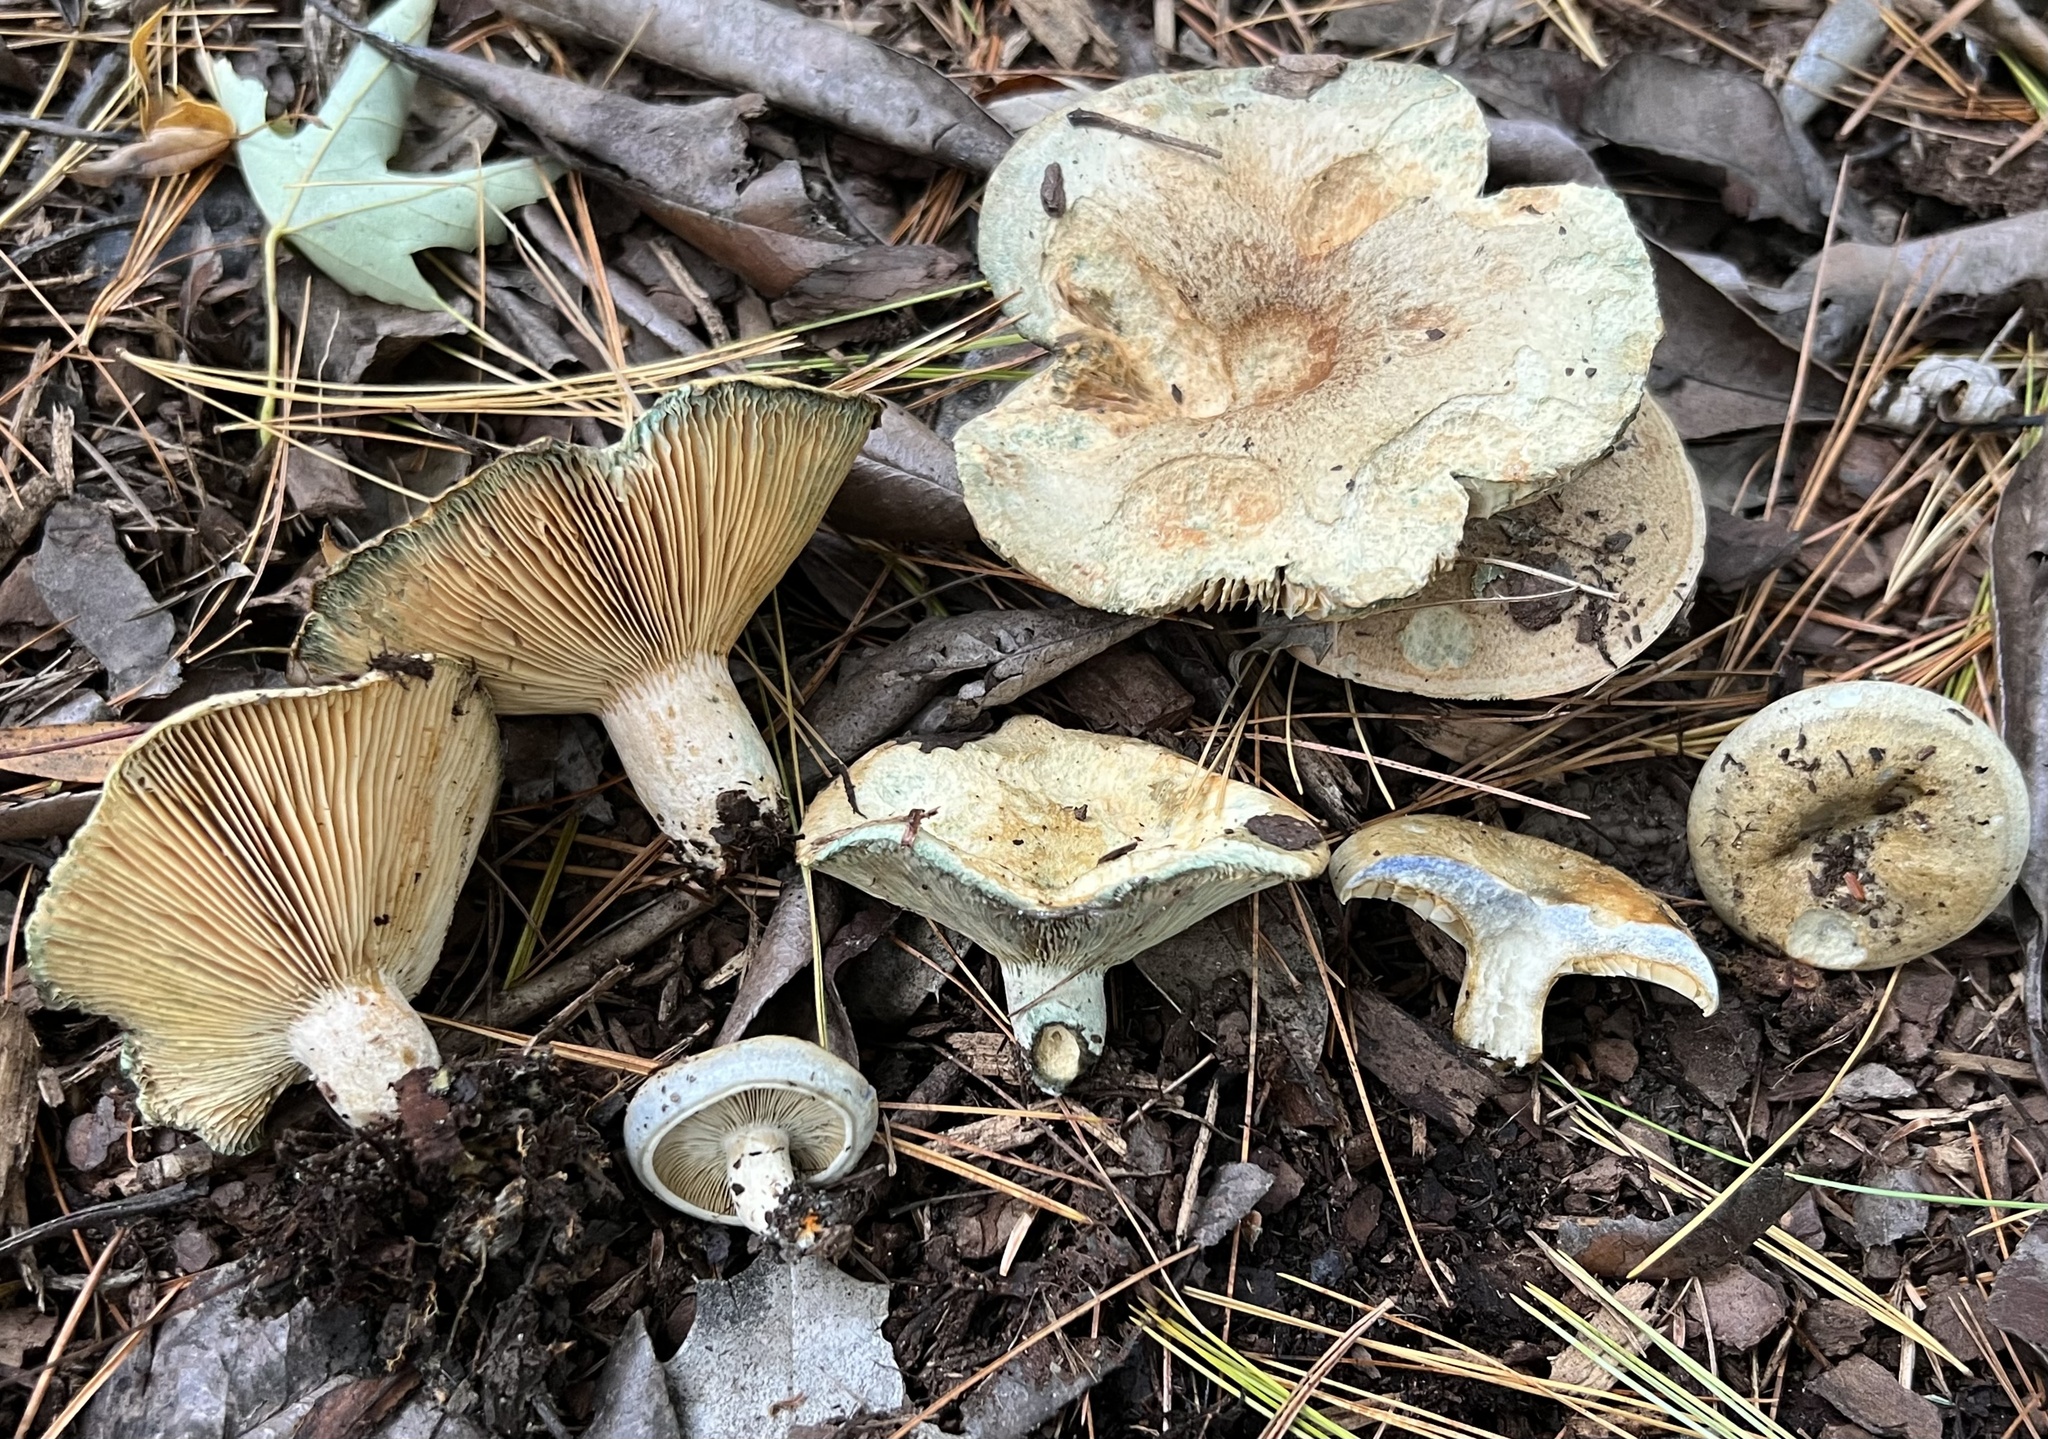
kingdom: Fungi
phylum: Basidiomycota
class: Agaricomycetes
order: Russulales
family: Russulaceae
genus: Lactarius
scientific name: Lactarius chelidonium
